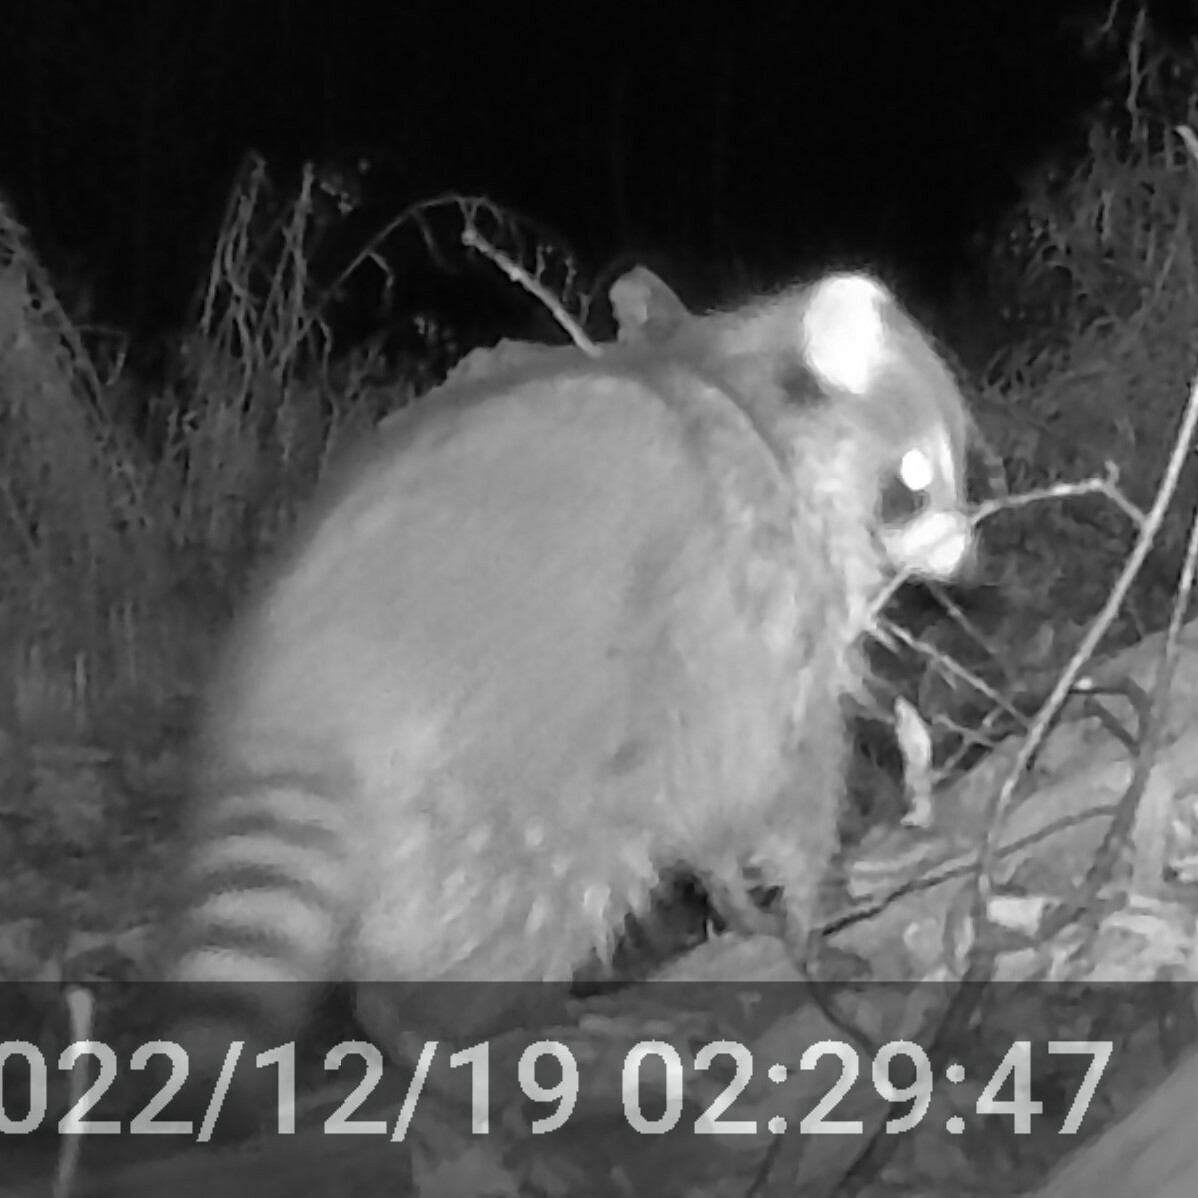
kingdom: Animalia
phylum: Chordata
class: Mammalia
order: Carnivora
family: Procyonidae
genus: Procyon
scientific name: Procyon lotor
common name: Raccoon
